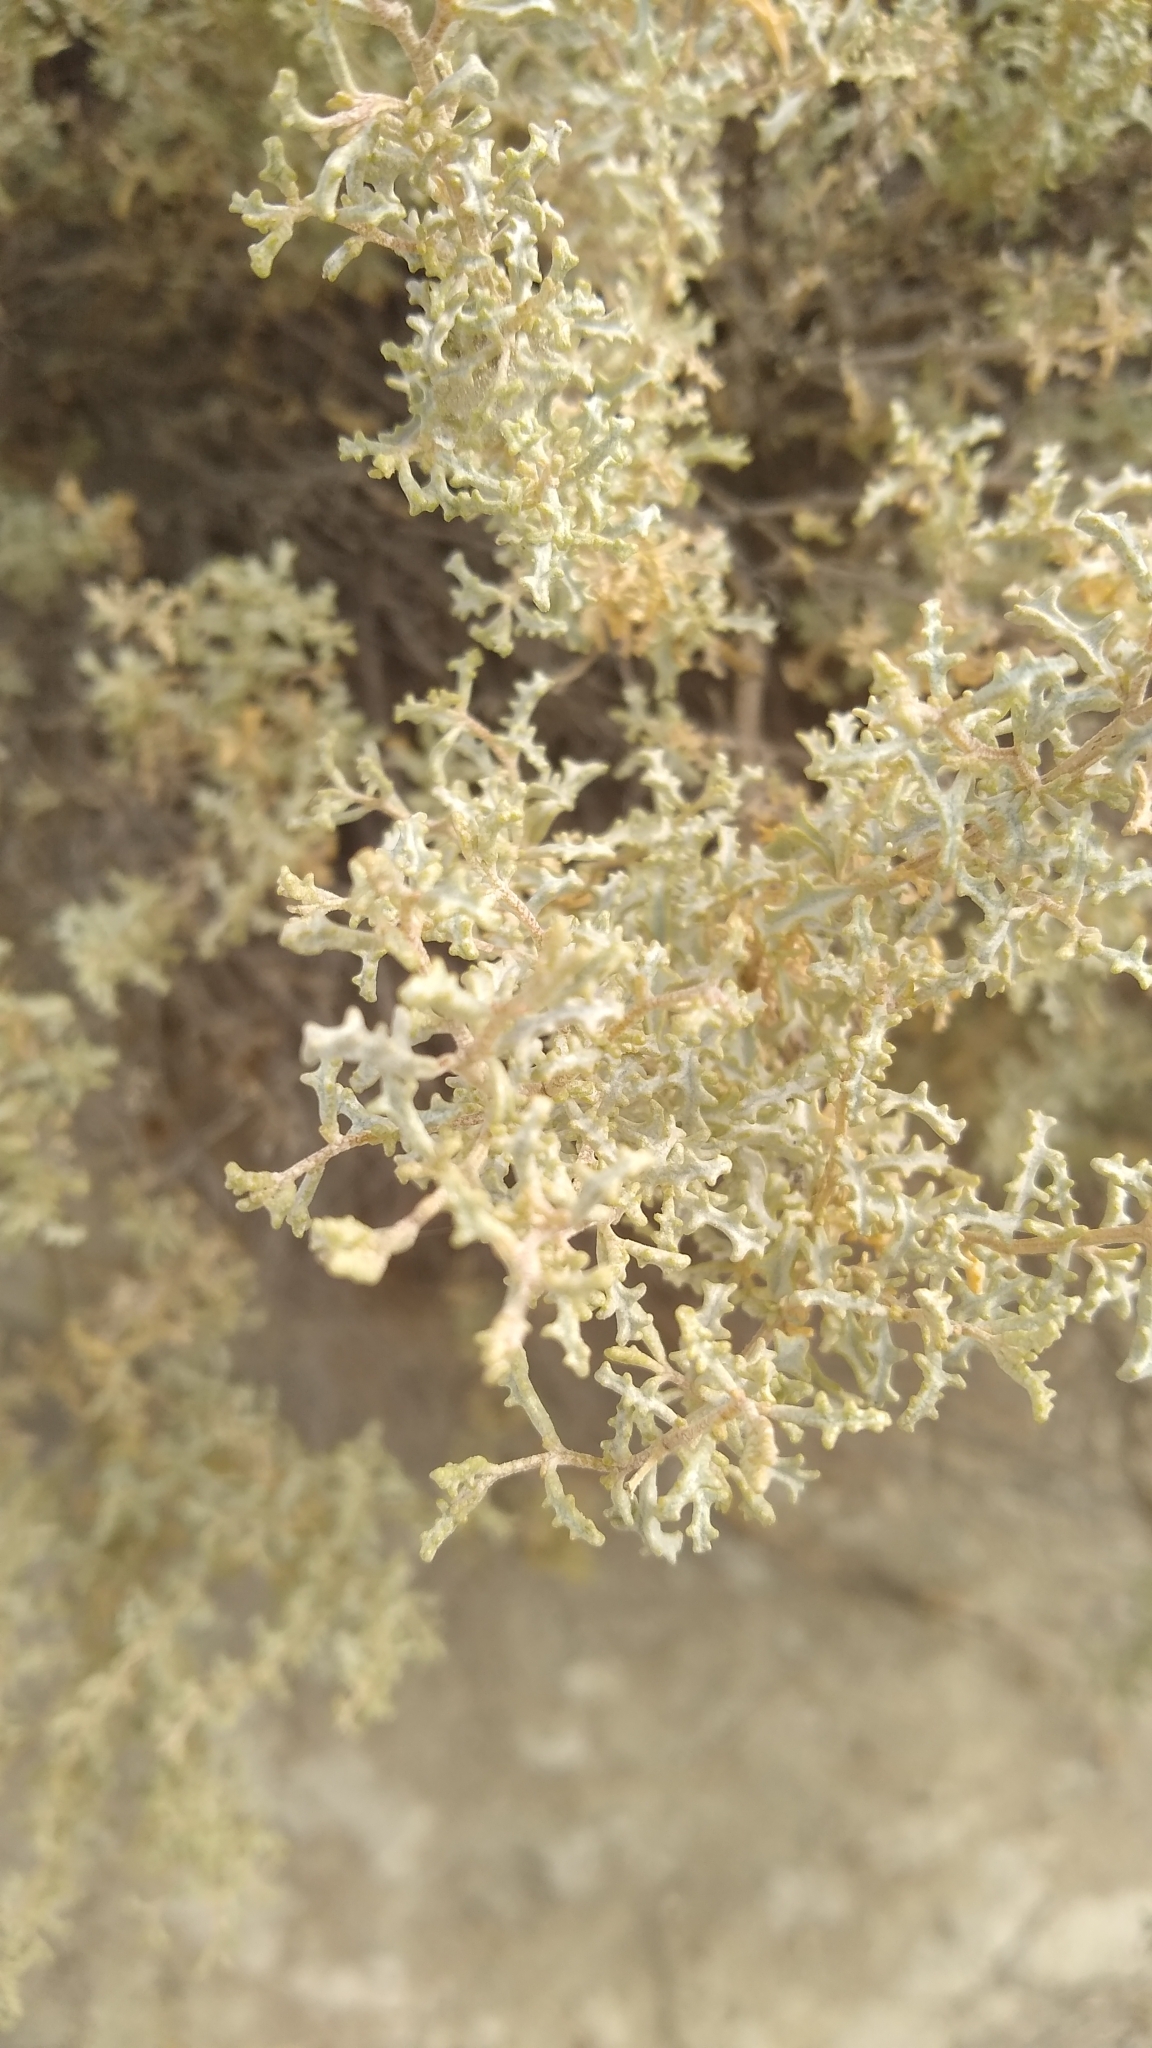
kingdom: Plantae
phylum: Tracheophyta
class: Magnoliopsida
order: Caryophyllales
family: Amaranthaceae
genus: Atriplex
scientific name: Atriplex lampa
